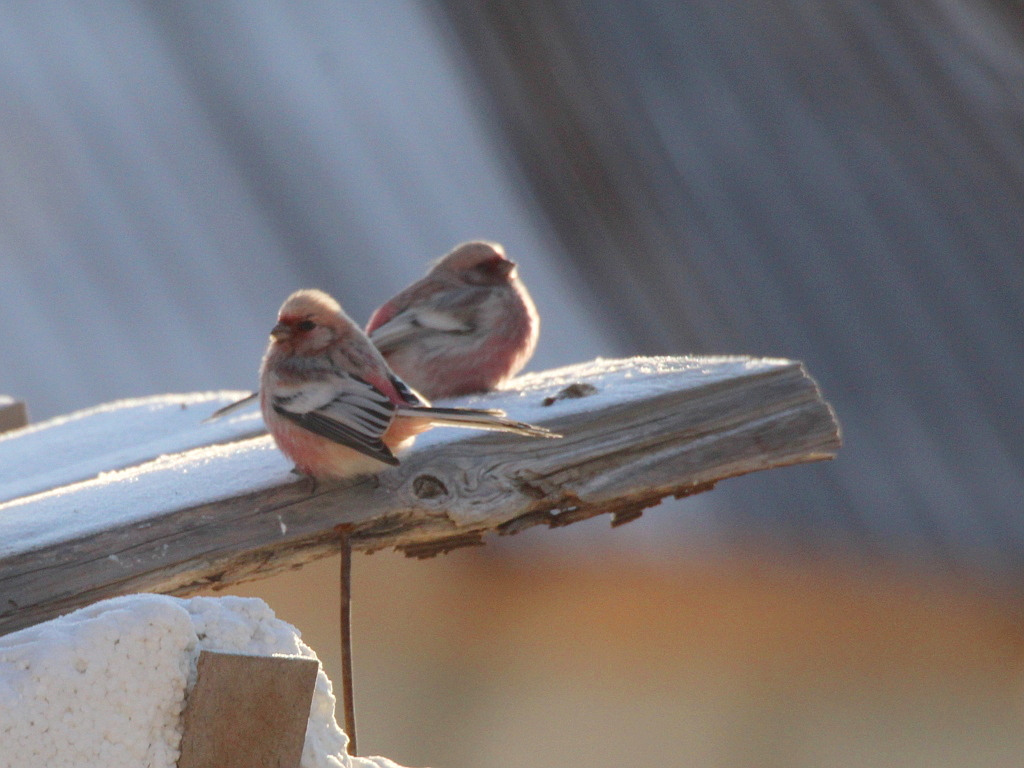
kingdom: Animalia
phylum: Chordata
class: Aves
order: Passeriformes
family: Fringillidae
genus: Carpodacus
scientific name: Carpodacus sibiricus
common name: Long-tailed rosefinch
